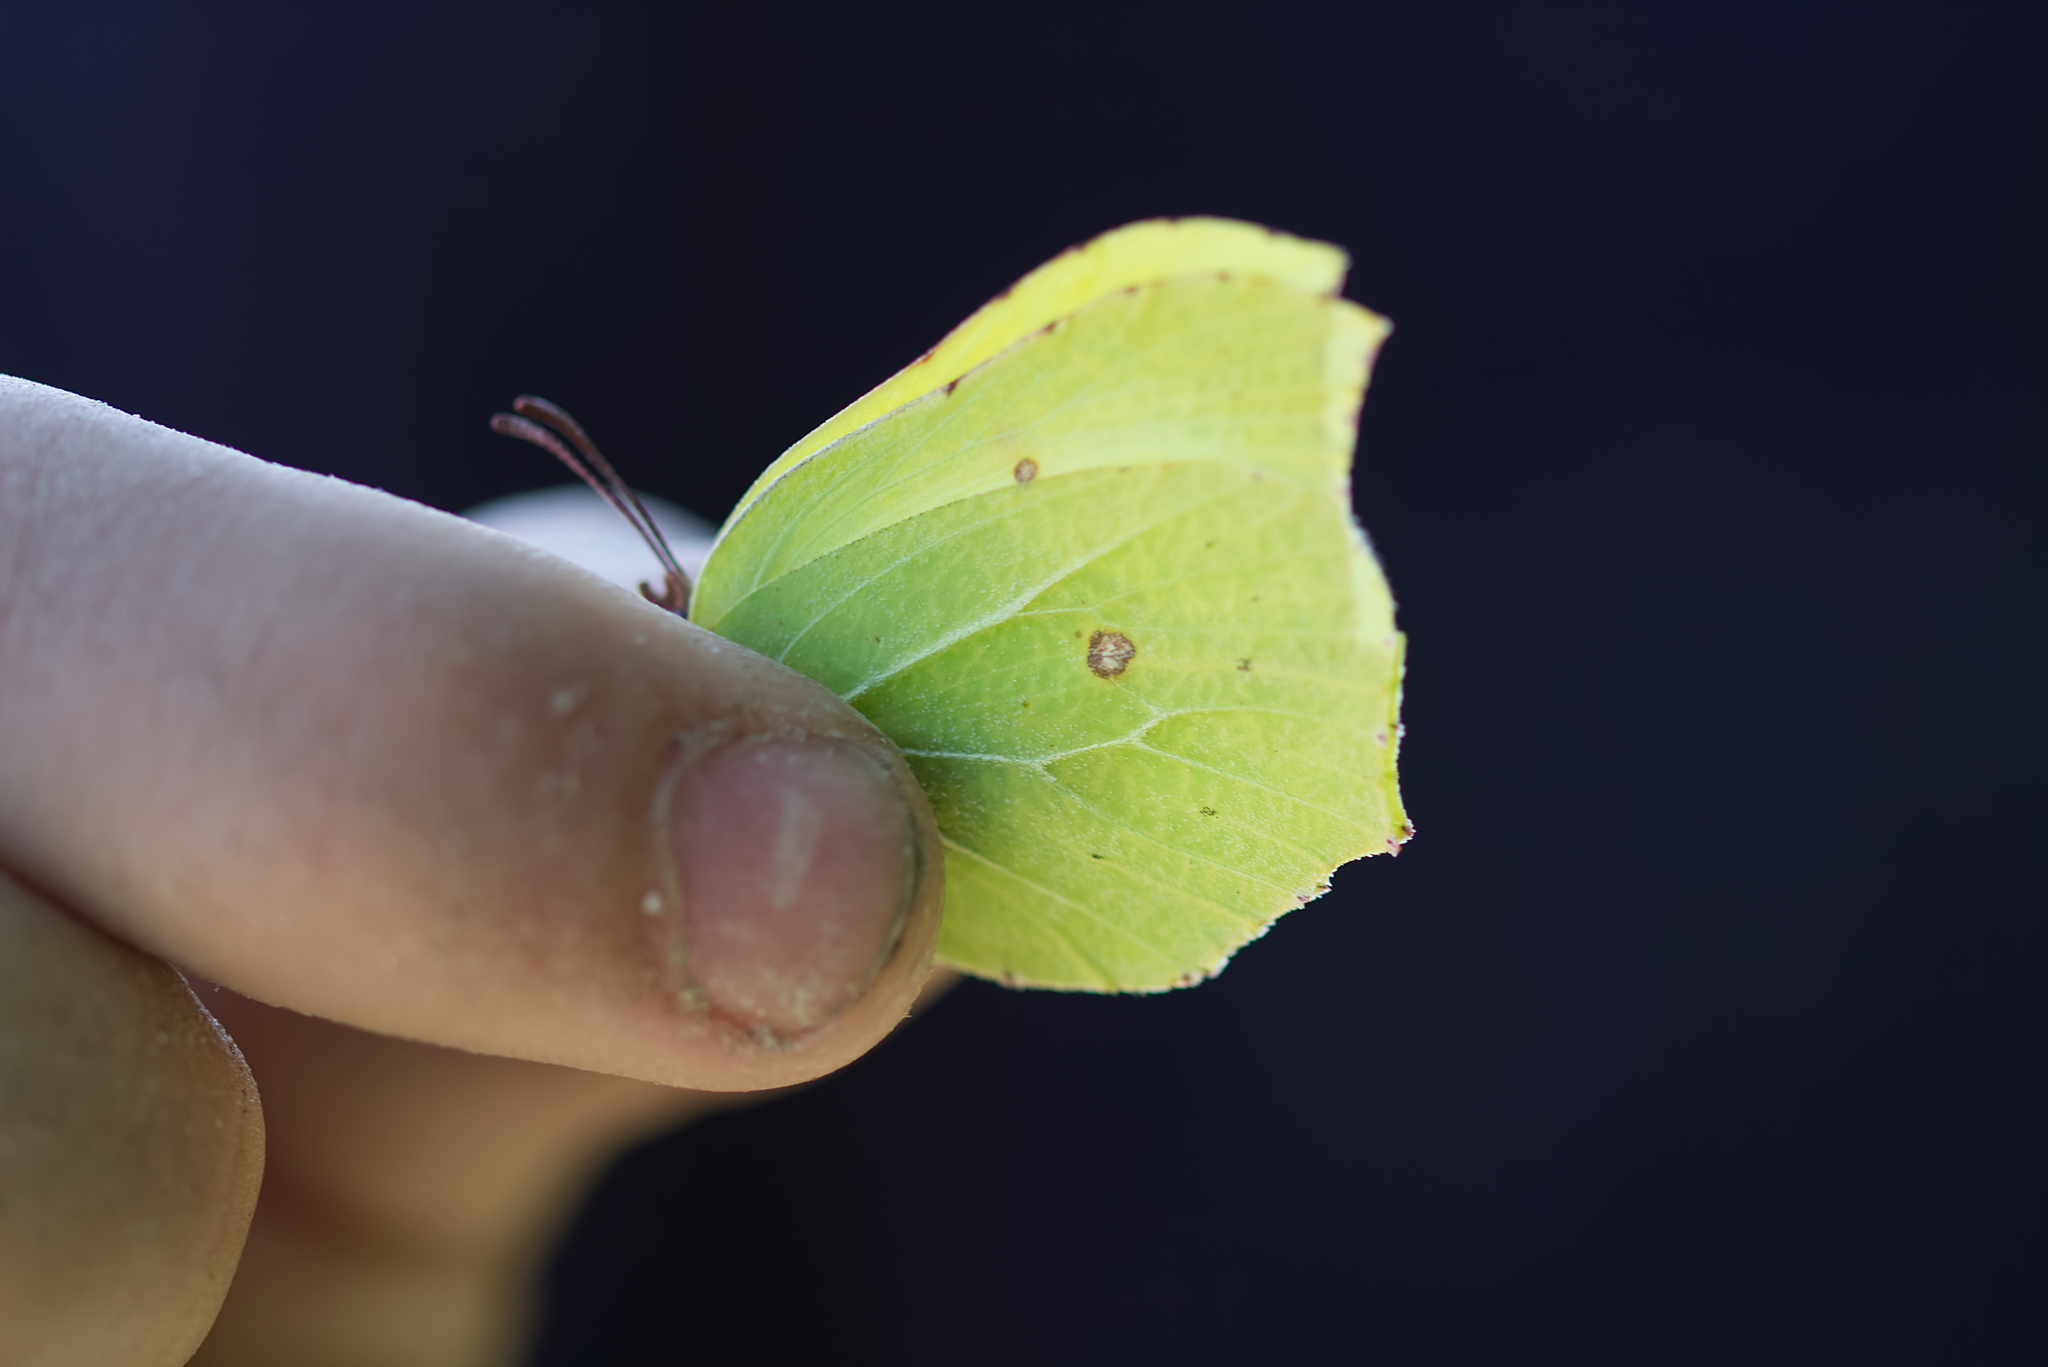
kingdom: Animalia
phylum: Arthropoda
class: Insecta
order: Lepidoptera
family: Pieridae
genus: Gonepteryx
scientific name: Gonepteryx rhamni
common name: Brimstone
